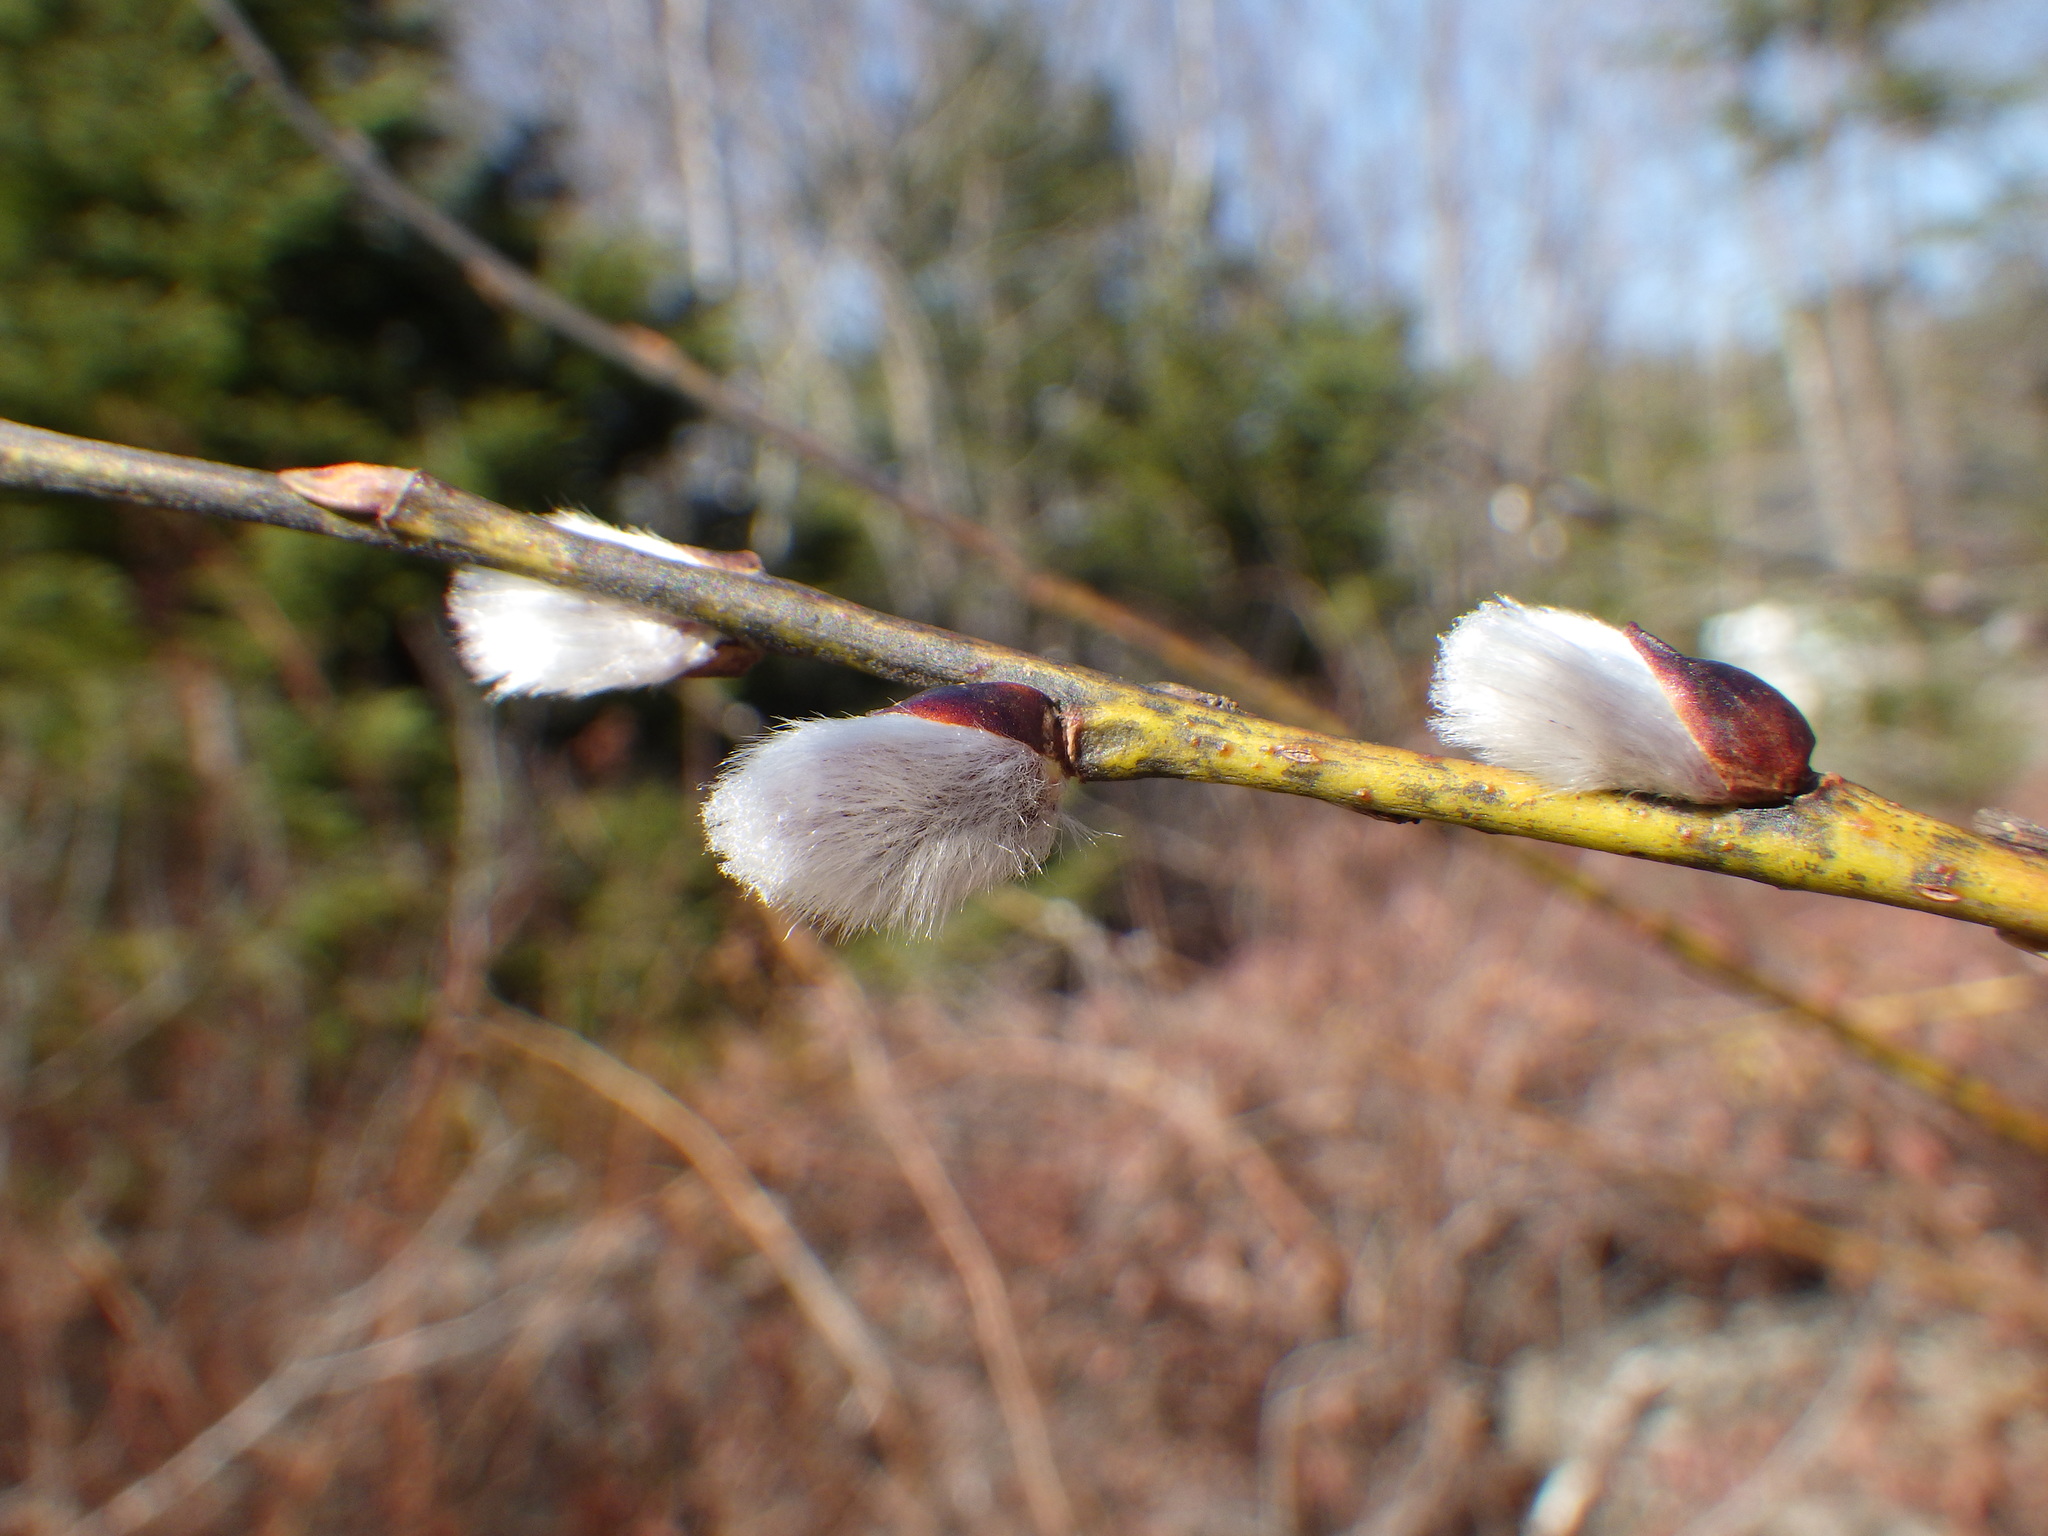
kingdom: Plantae
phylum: Tracheophyta
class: Magnoliopsida
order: Malpighiales
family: Salicaceae
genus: Salix
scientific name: Salix caprea
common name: Goat willow
